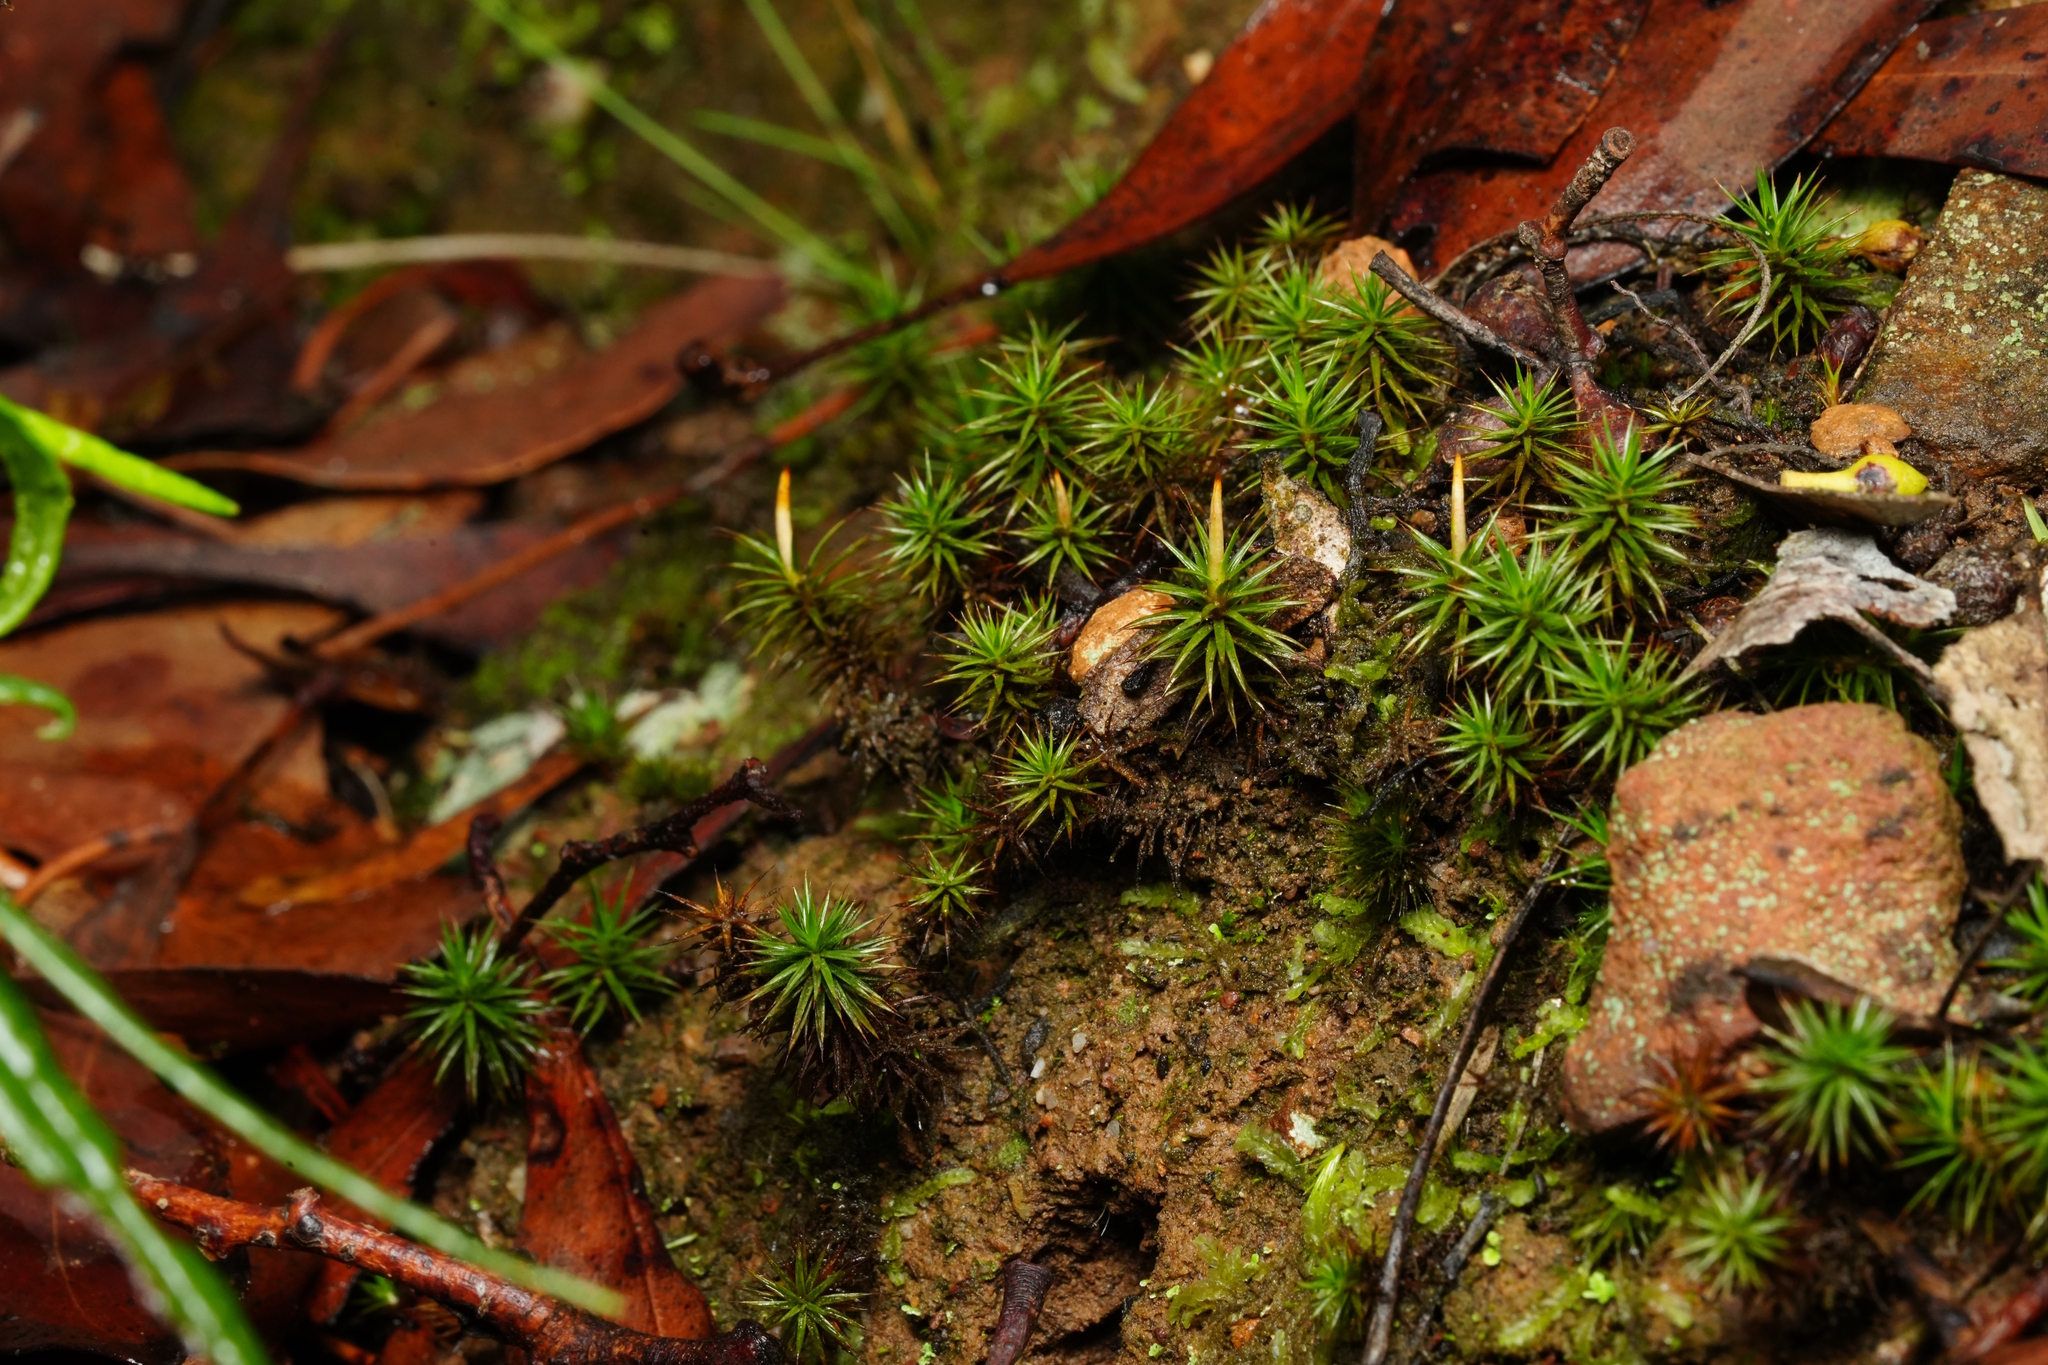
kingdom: Plantae
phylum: Bryophyta
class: Polytrichopsida
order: Polytrichales
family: Polytrichaceae
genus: Polytrichum
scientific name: Polytrichum juniperinum
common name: Juniper haircap moss
